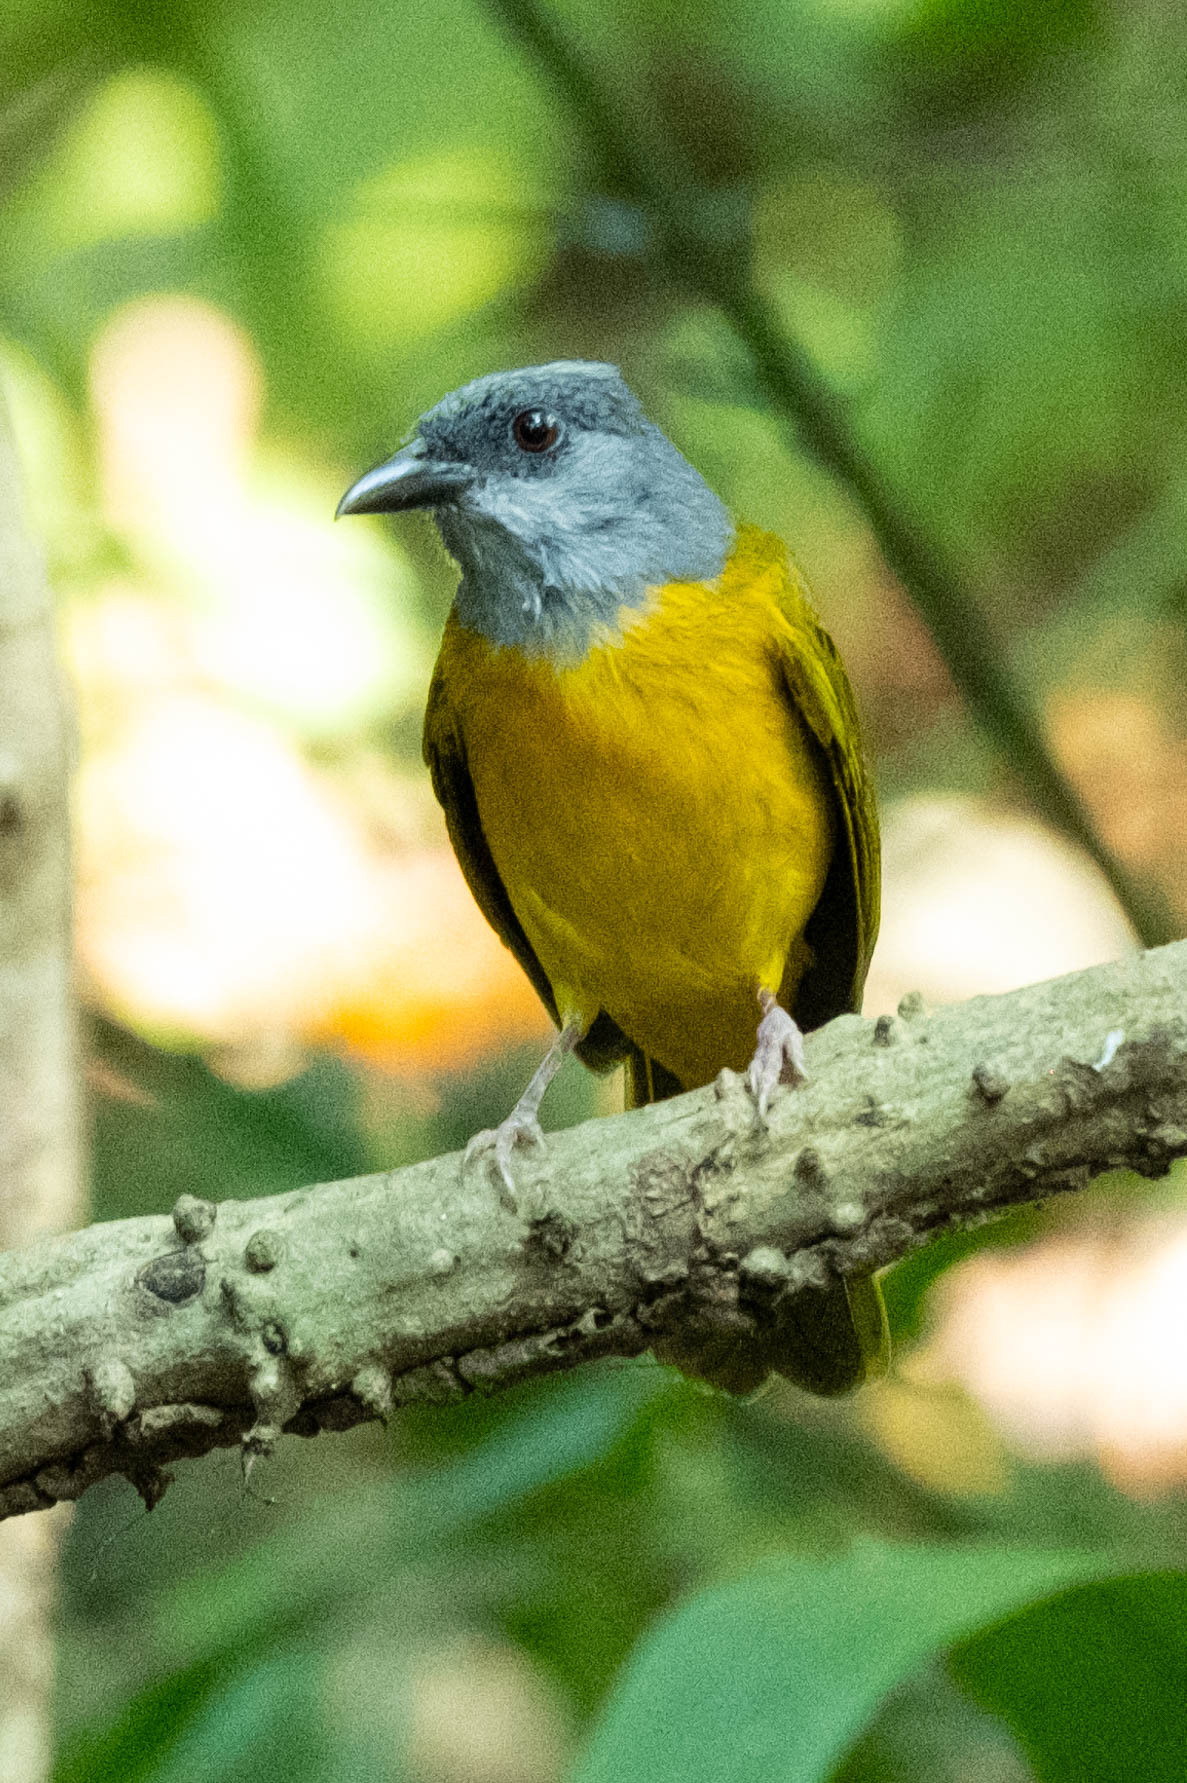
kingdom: Animalia
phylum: Chordata
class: Aves
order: Passeriformes
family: Thraupidae
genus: Eucometis
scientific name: Eucometis penicillata
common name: Grey-headed tanager
